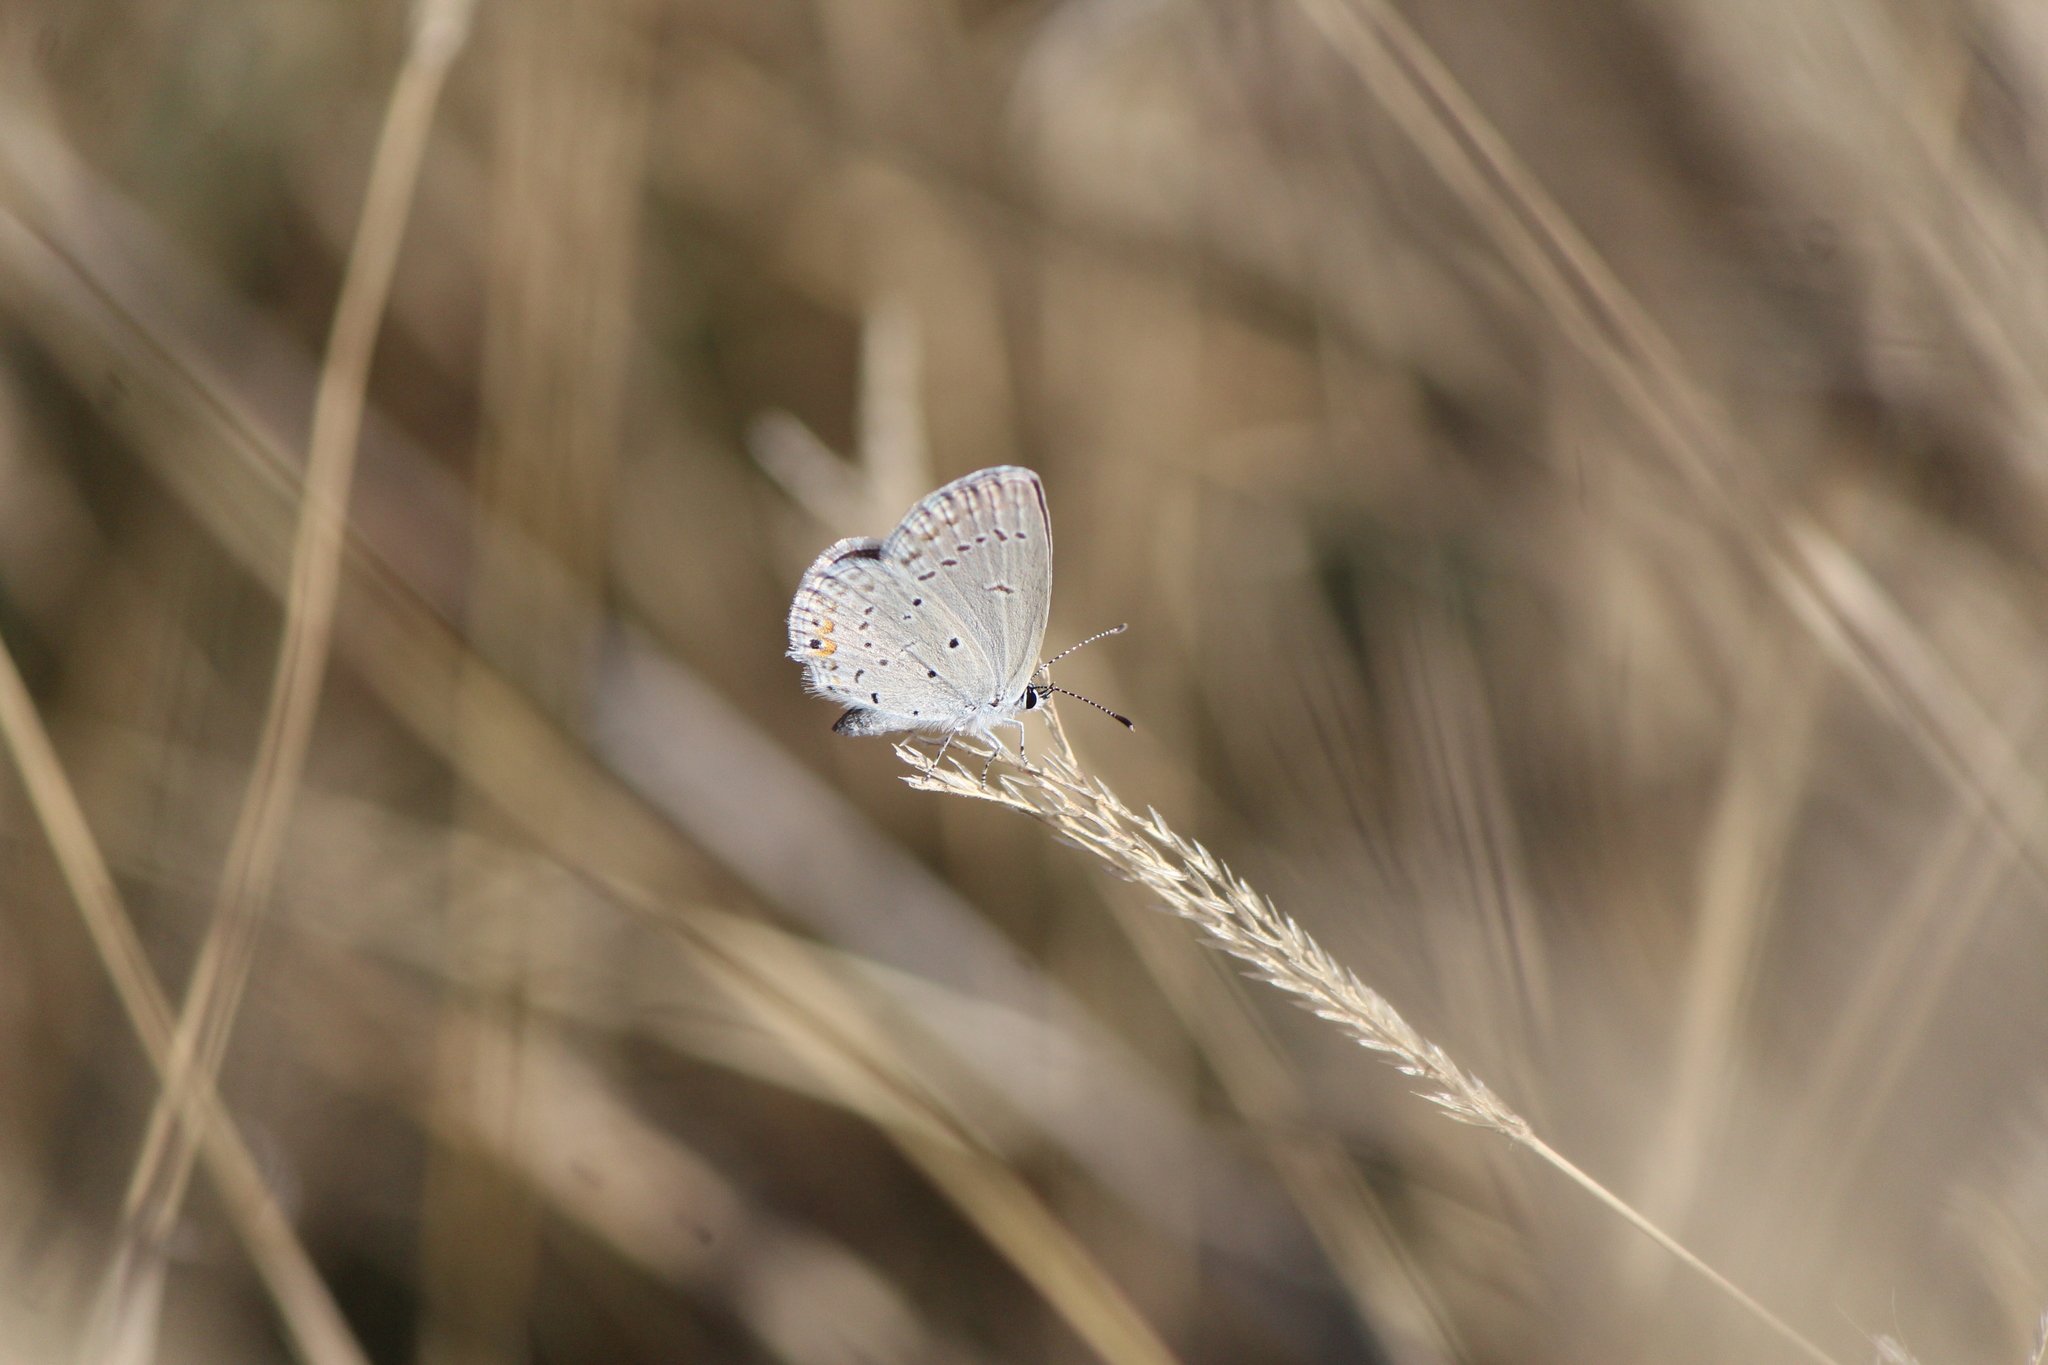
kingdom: Animalia
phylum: Arthropoda
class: Insecta
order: Lepidoptera
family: Lycaenidae
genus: Elkalyce
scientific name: Elkalyce comyntas
